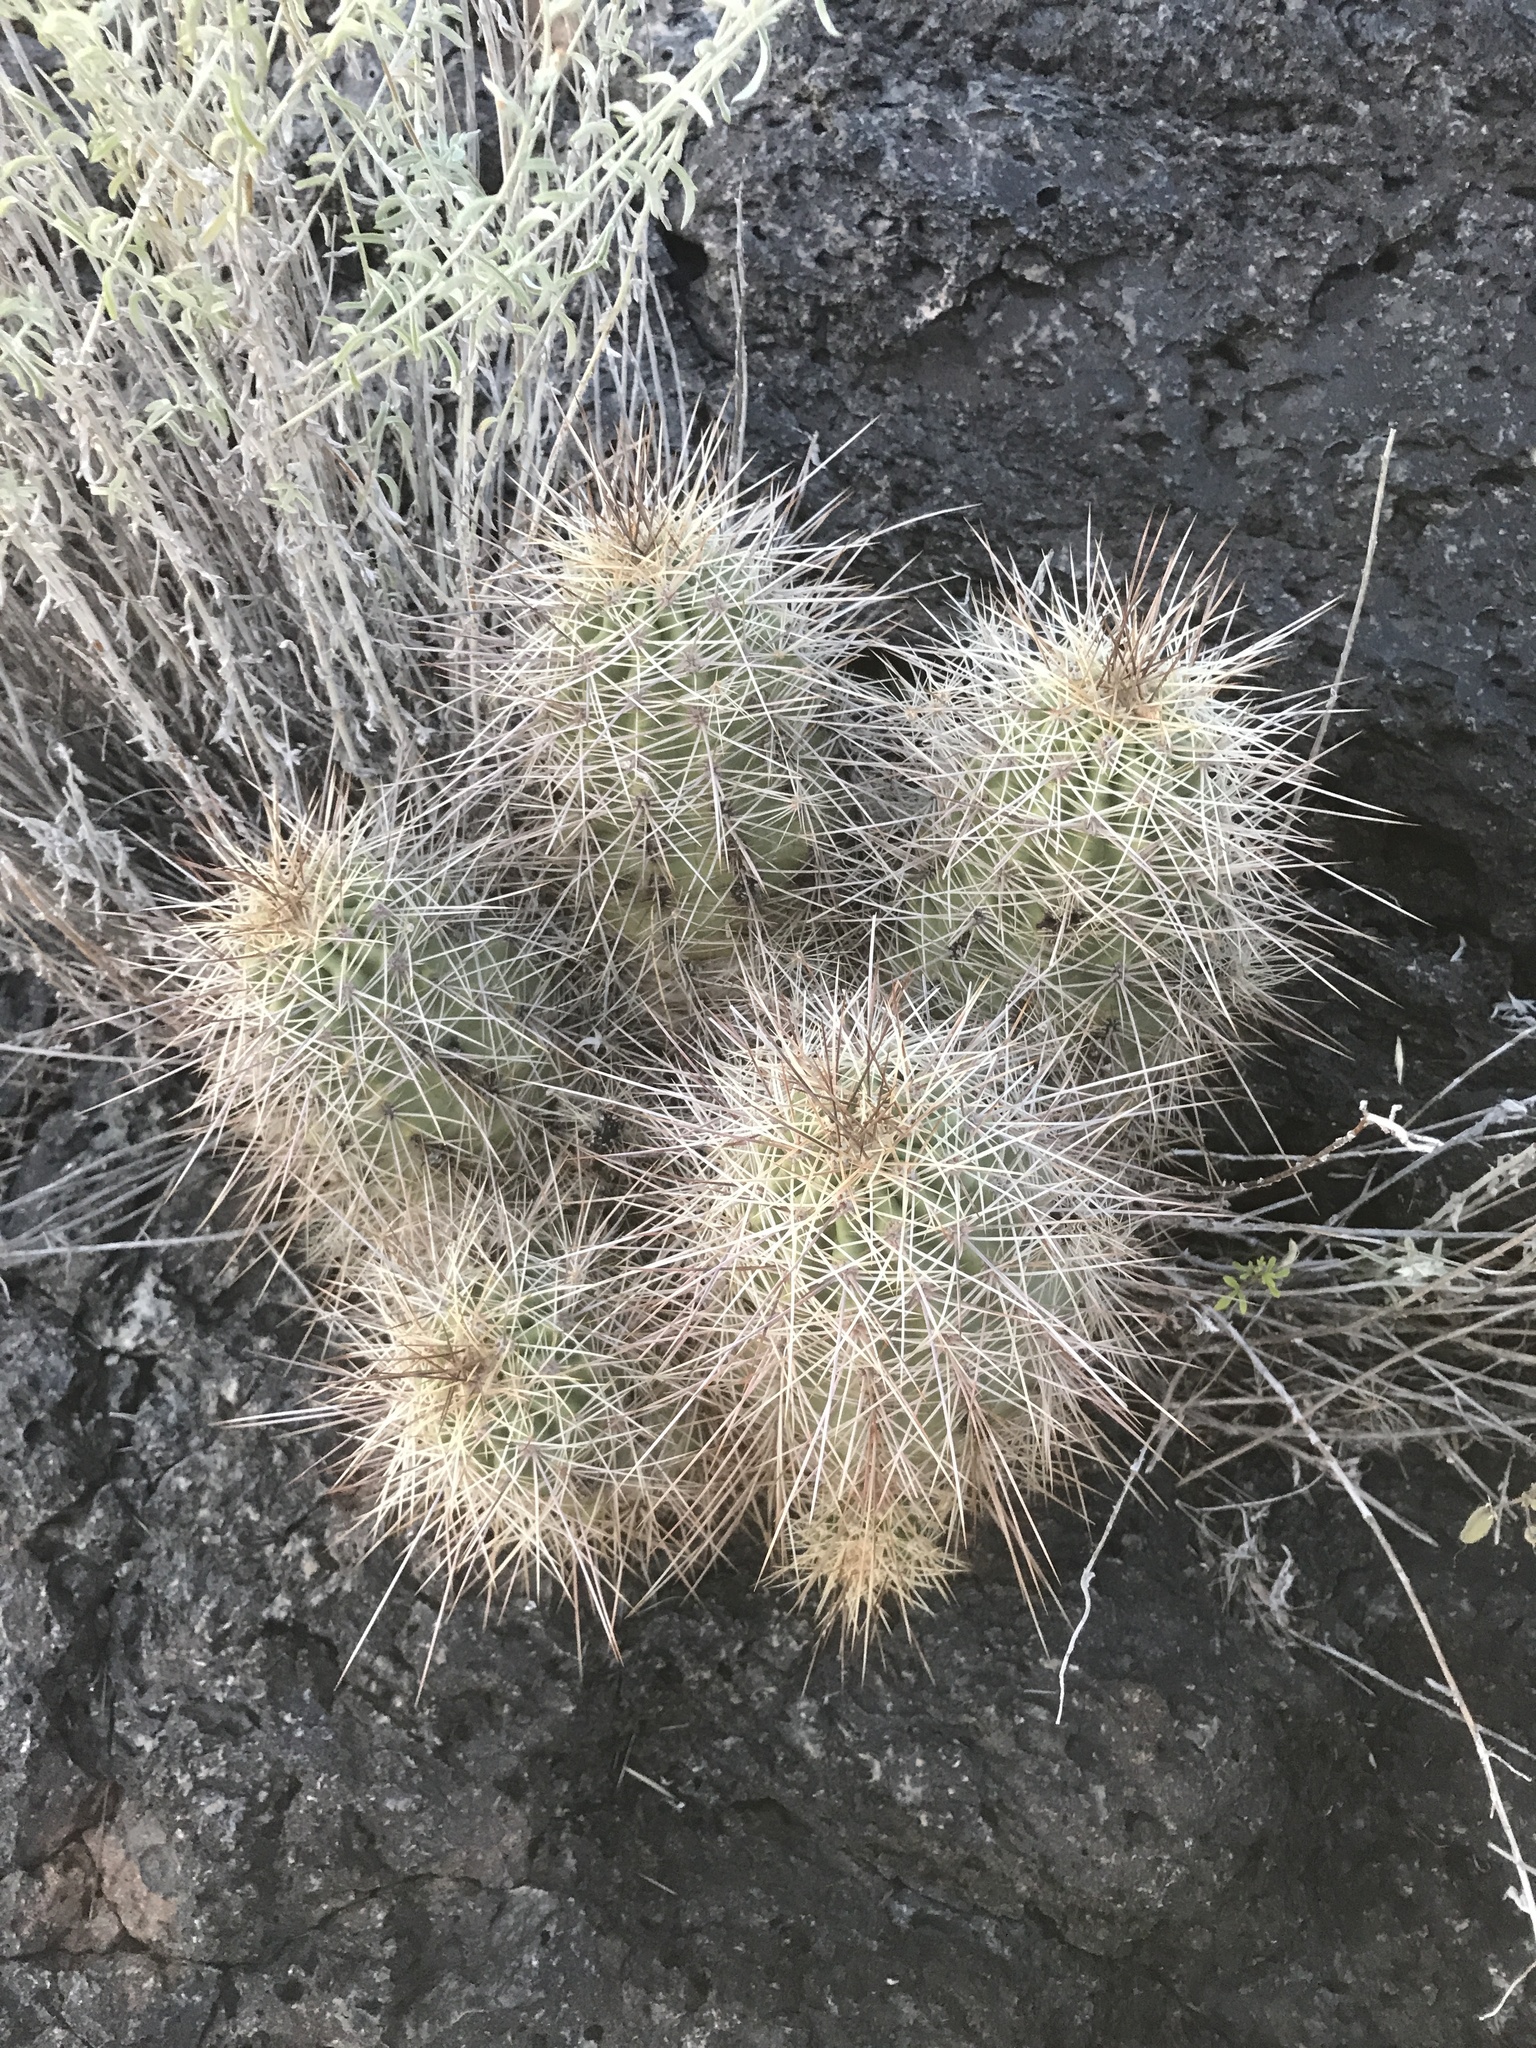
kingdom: Plantae
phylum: Tracheophyta
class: Magnoliopsida
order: Caryophyllales
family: Cactaceae
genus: Echinocereus
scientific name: Echinocereus coccineus
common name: Scarlet hedgehog cactus
